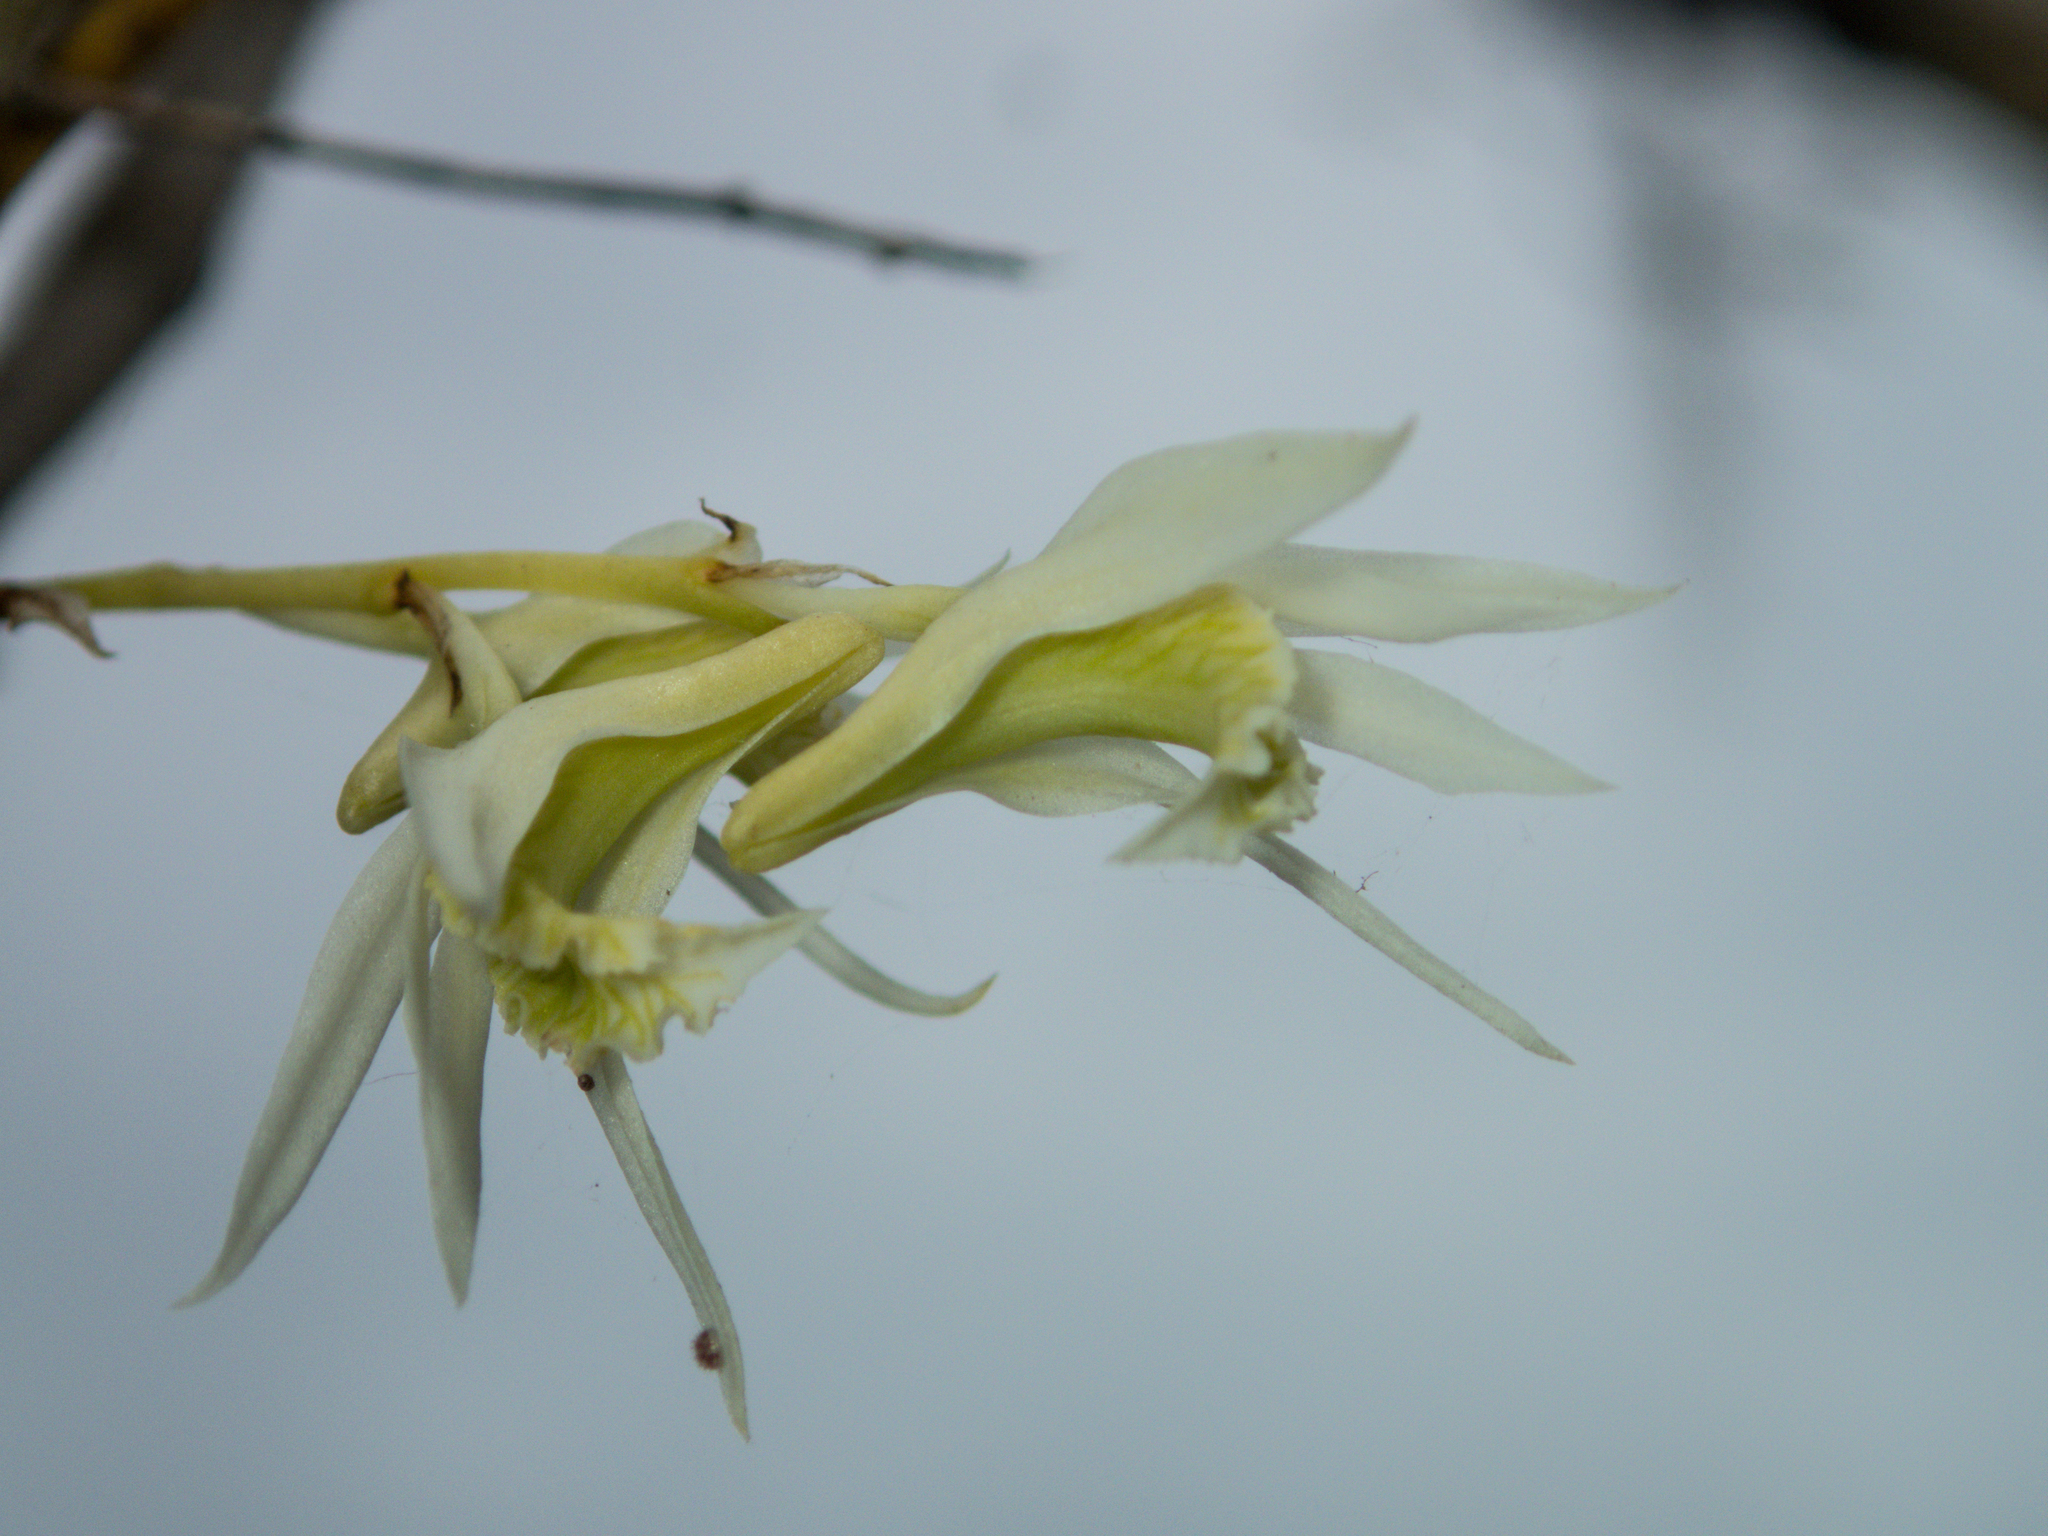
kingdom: Plantae
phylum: Tracheophyta
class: Liliopsida
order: Asparagales
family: Orchidaceae
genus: Dendrobium
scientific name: Dendrobium kratense
